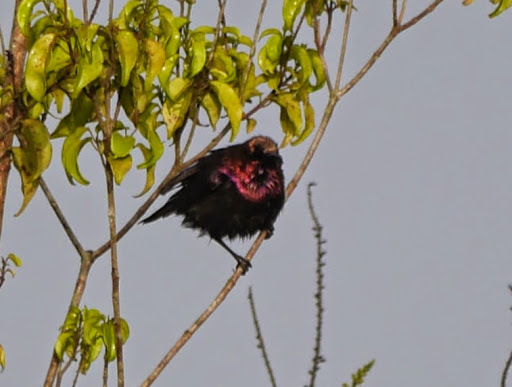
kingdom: Animalia
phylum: Chordata
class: Aves
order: Passeriformes
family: Nectariniidae
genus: Cinnyris
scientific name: Cinnyris cupreus
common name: Copper sunbird
